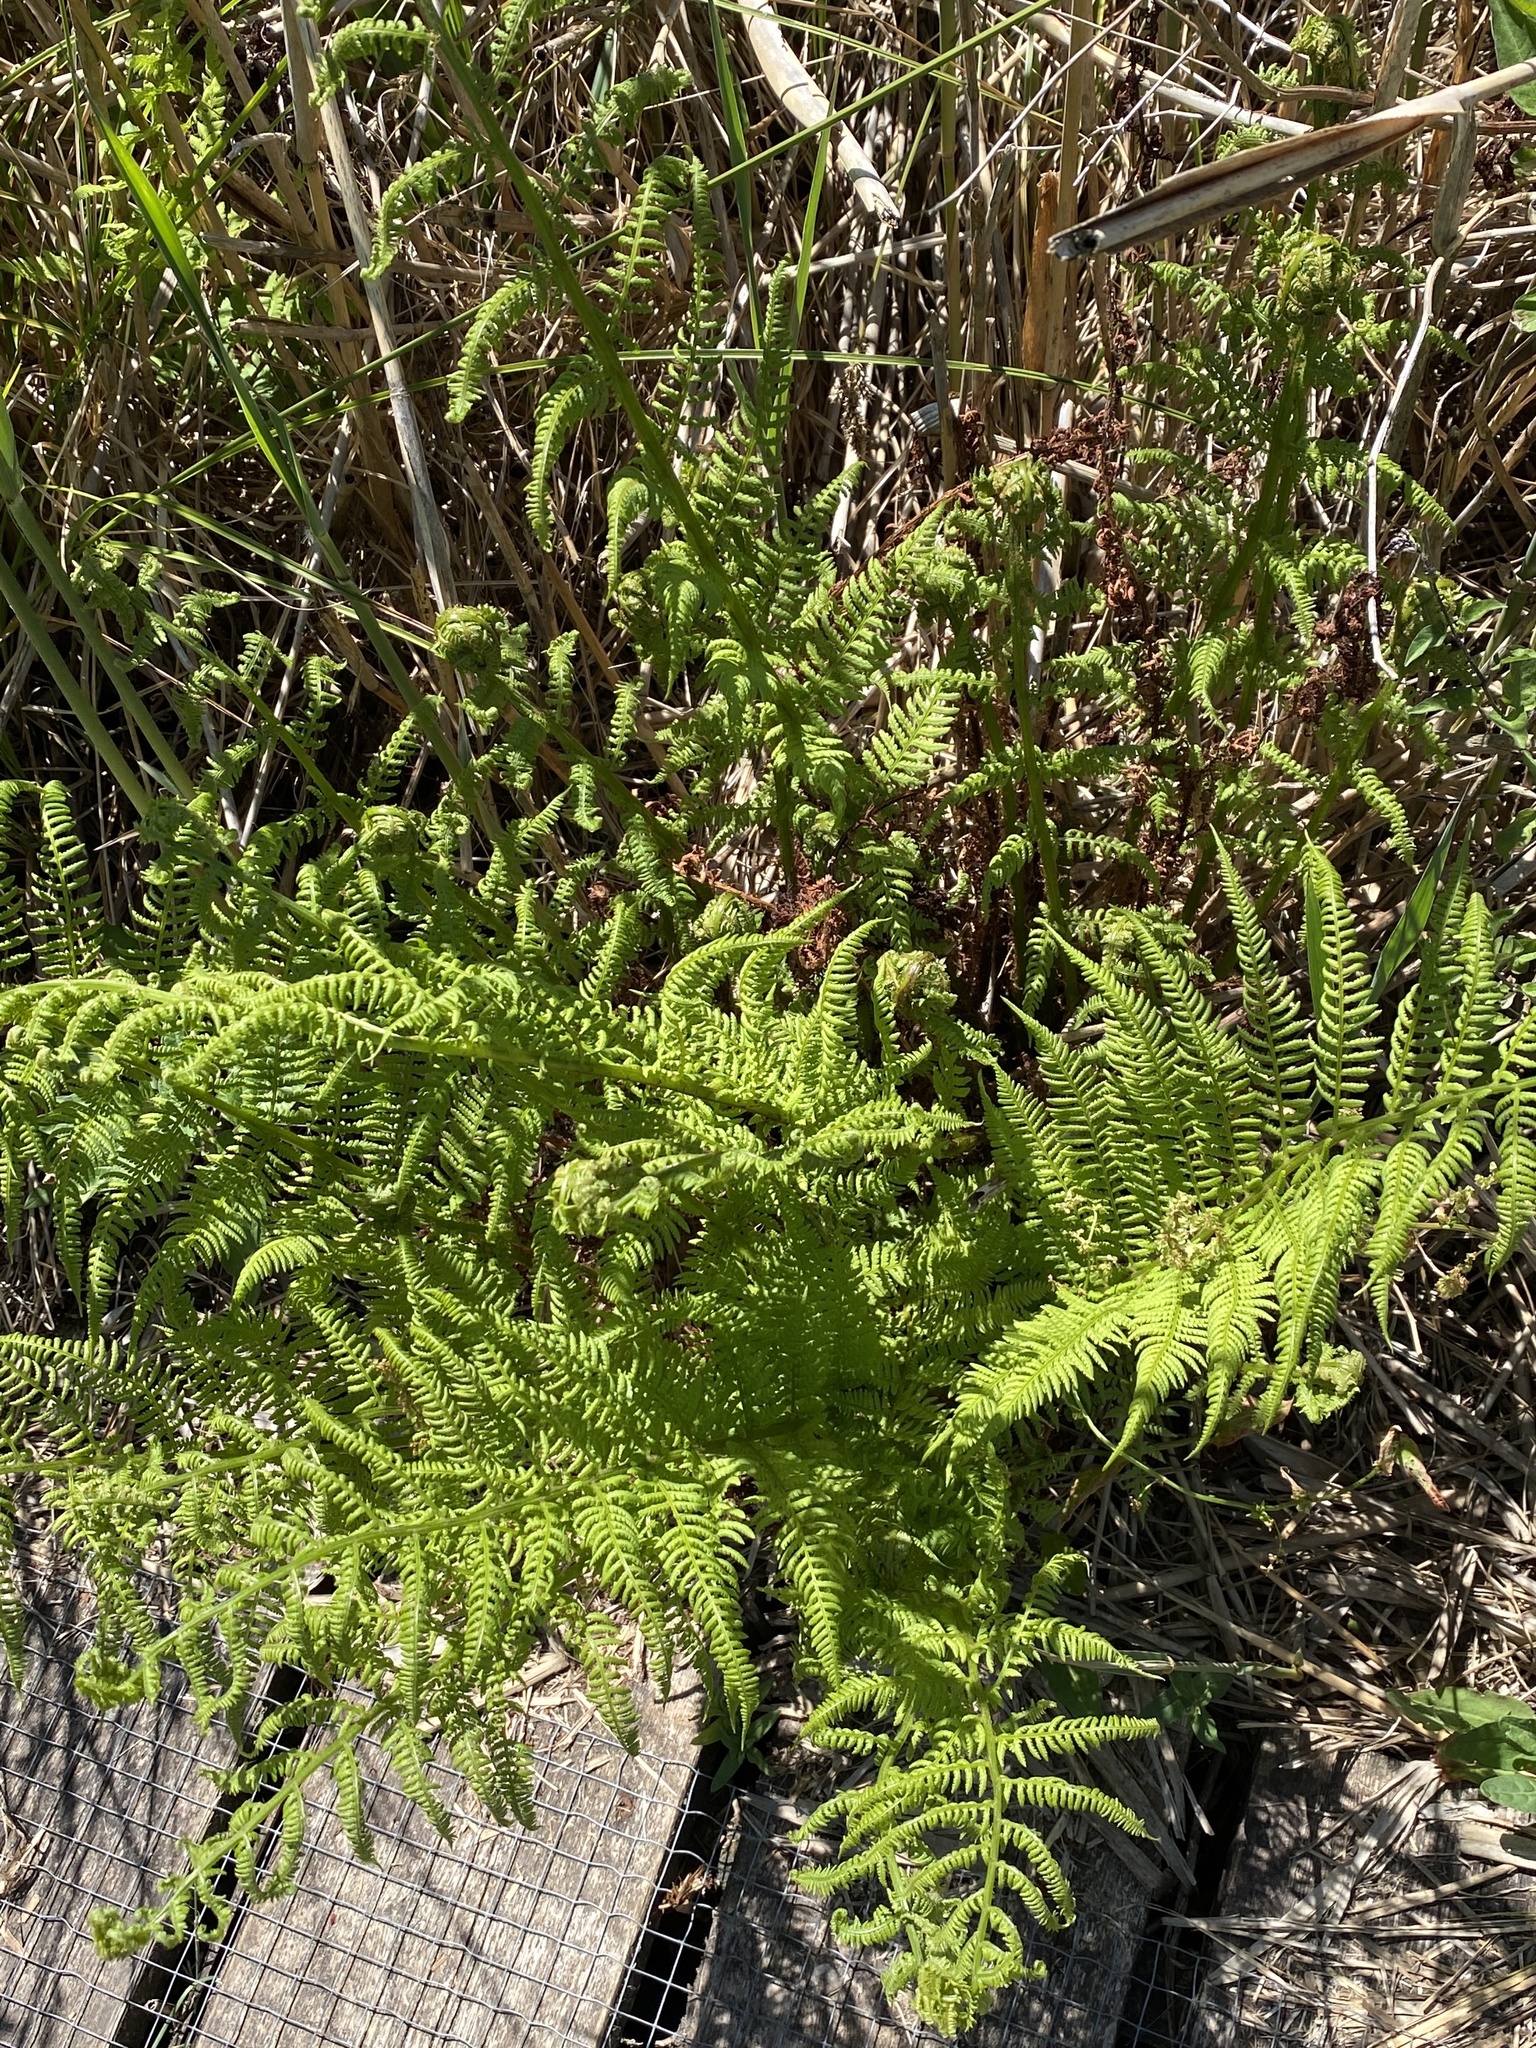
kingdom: Plantae
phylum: Tracheophyta
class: Polypodiopsida
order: Polypodiales
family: Athyriaceae
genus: Athyrium
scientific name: Athyrium filix-femina
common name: Lady fern
